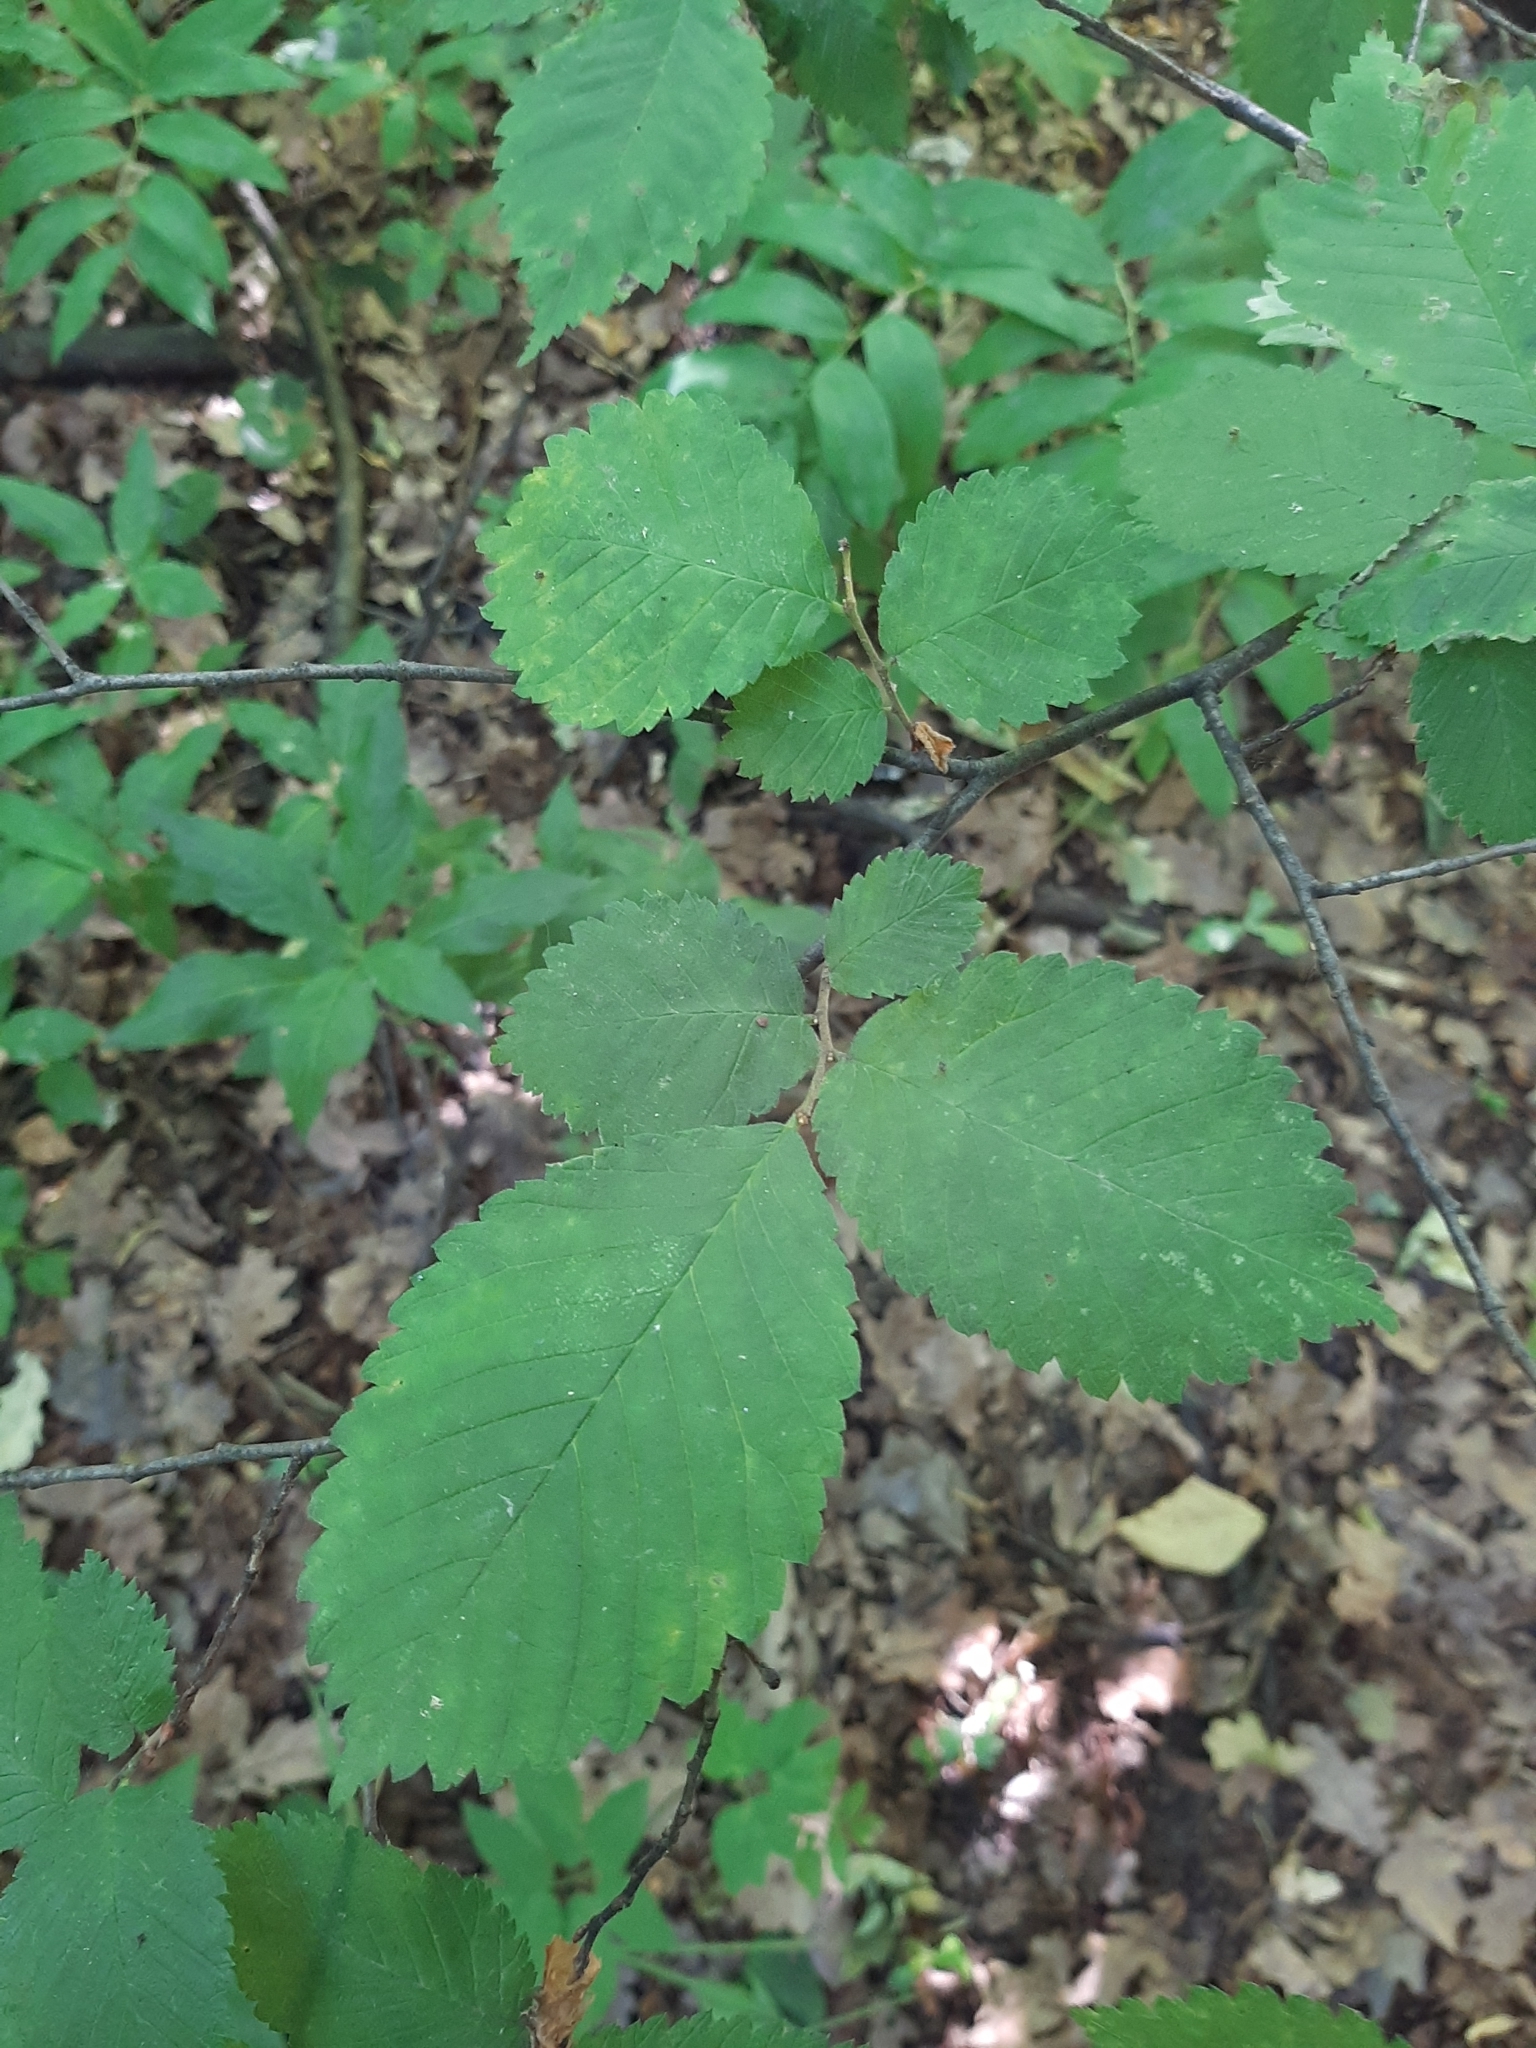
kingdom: Plantae
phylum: Tracheophyta
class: Magnoliopsida
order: Rosales
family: Ulmaceae
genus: Ulmus
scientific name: Ulmus glabra
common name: Wych elm
